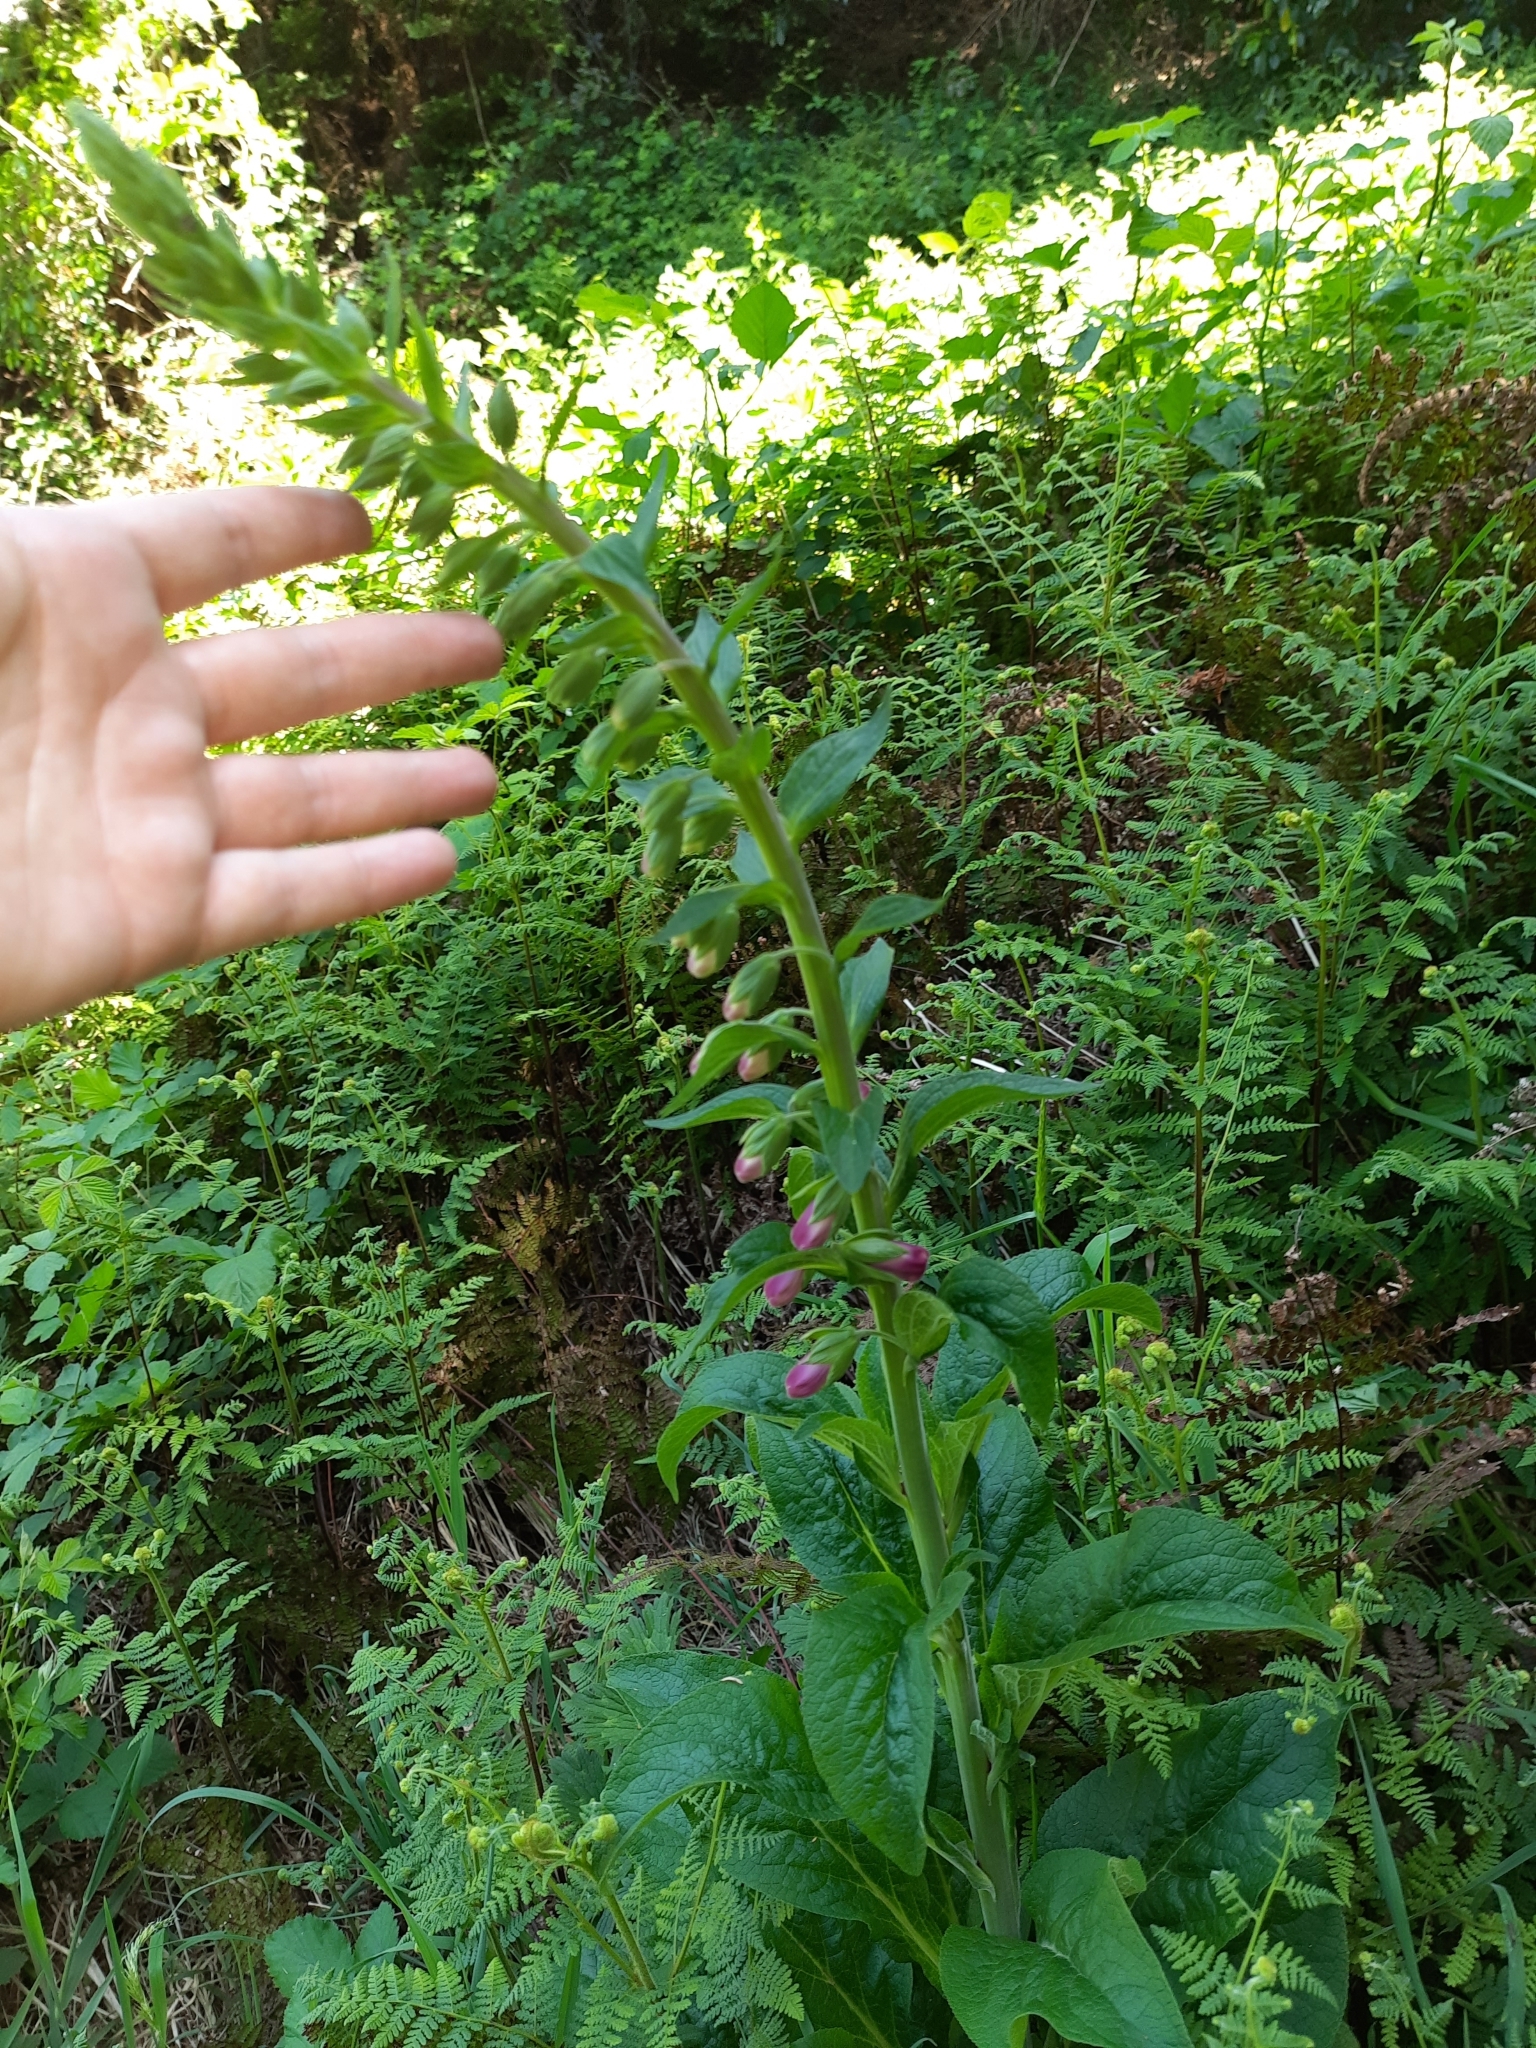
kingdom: Plantae
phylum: Tracheophyta
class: Magnoliopsida
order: Lamiales
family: Plantaginaceae
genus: Digitalis
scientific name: Digitalis purpurea
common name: Foxglove
